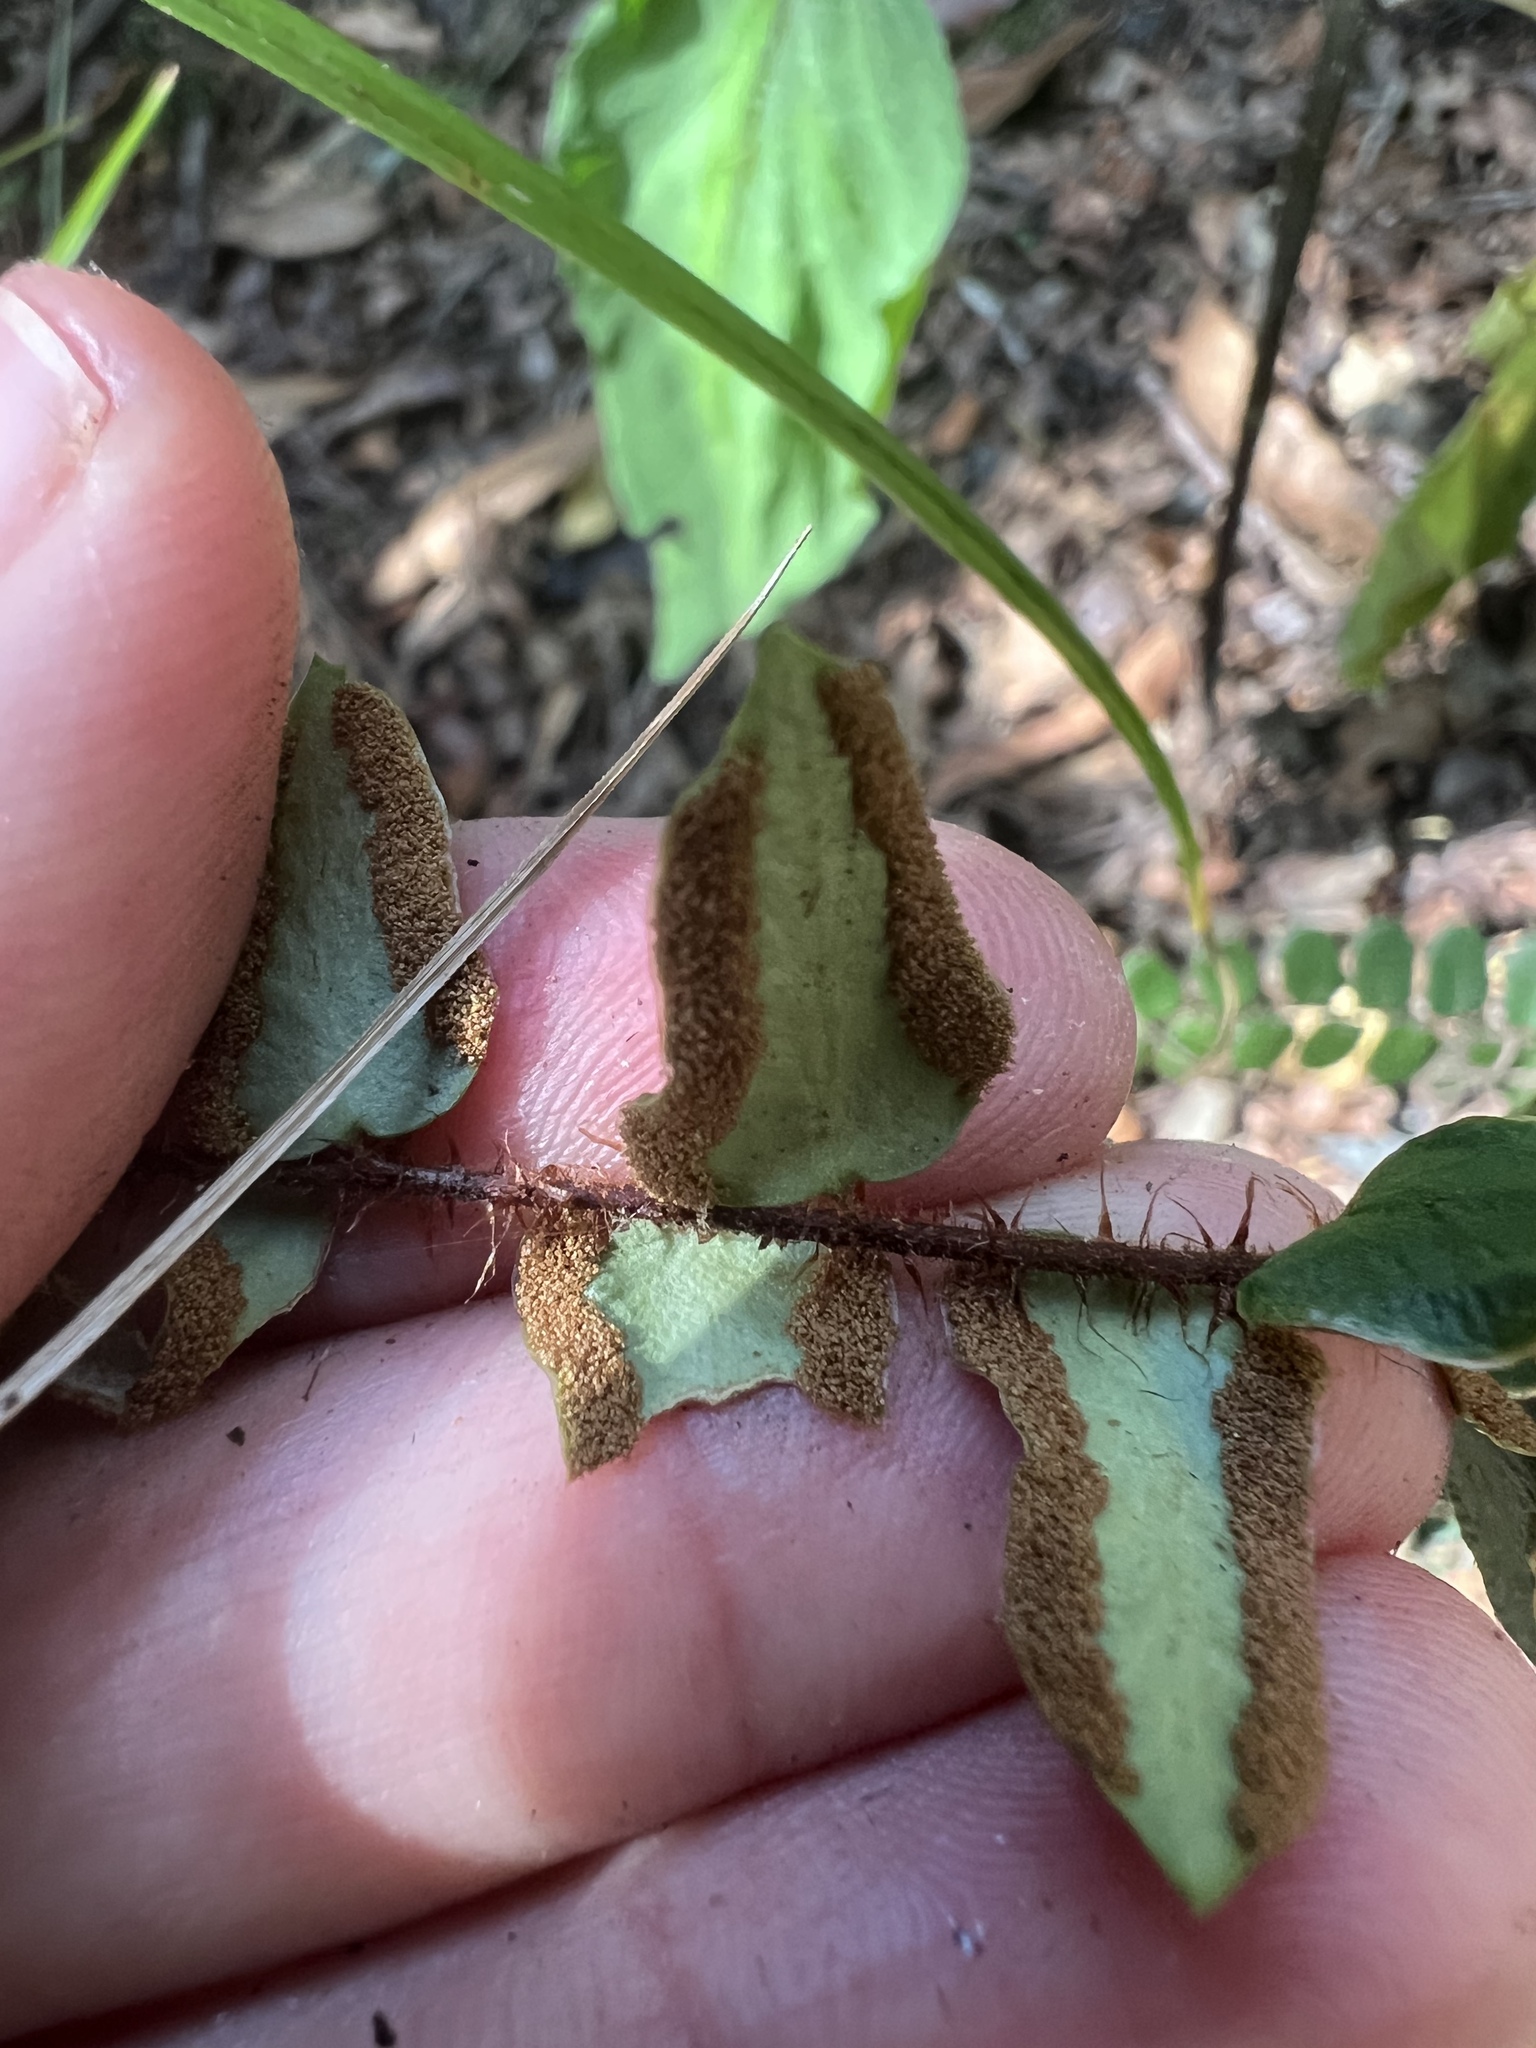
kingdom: Plantae
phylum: Tracheophyta
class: Polypodiopsida
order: Polypodiales
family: Pteridaceae
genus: Pellaea
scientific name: Pellaea rotundifolia
